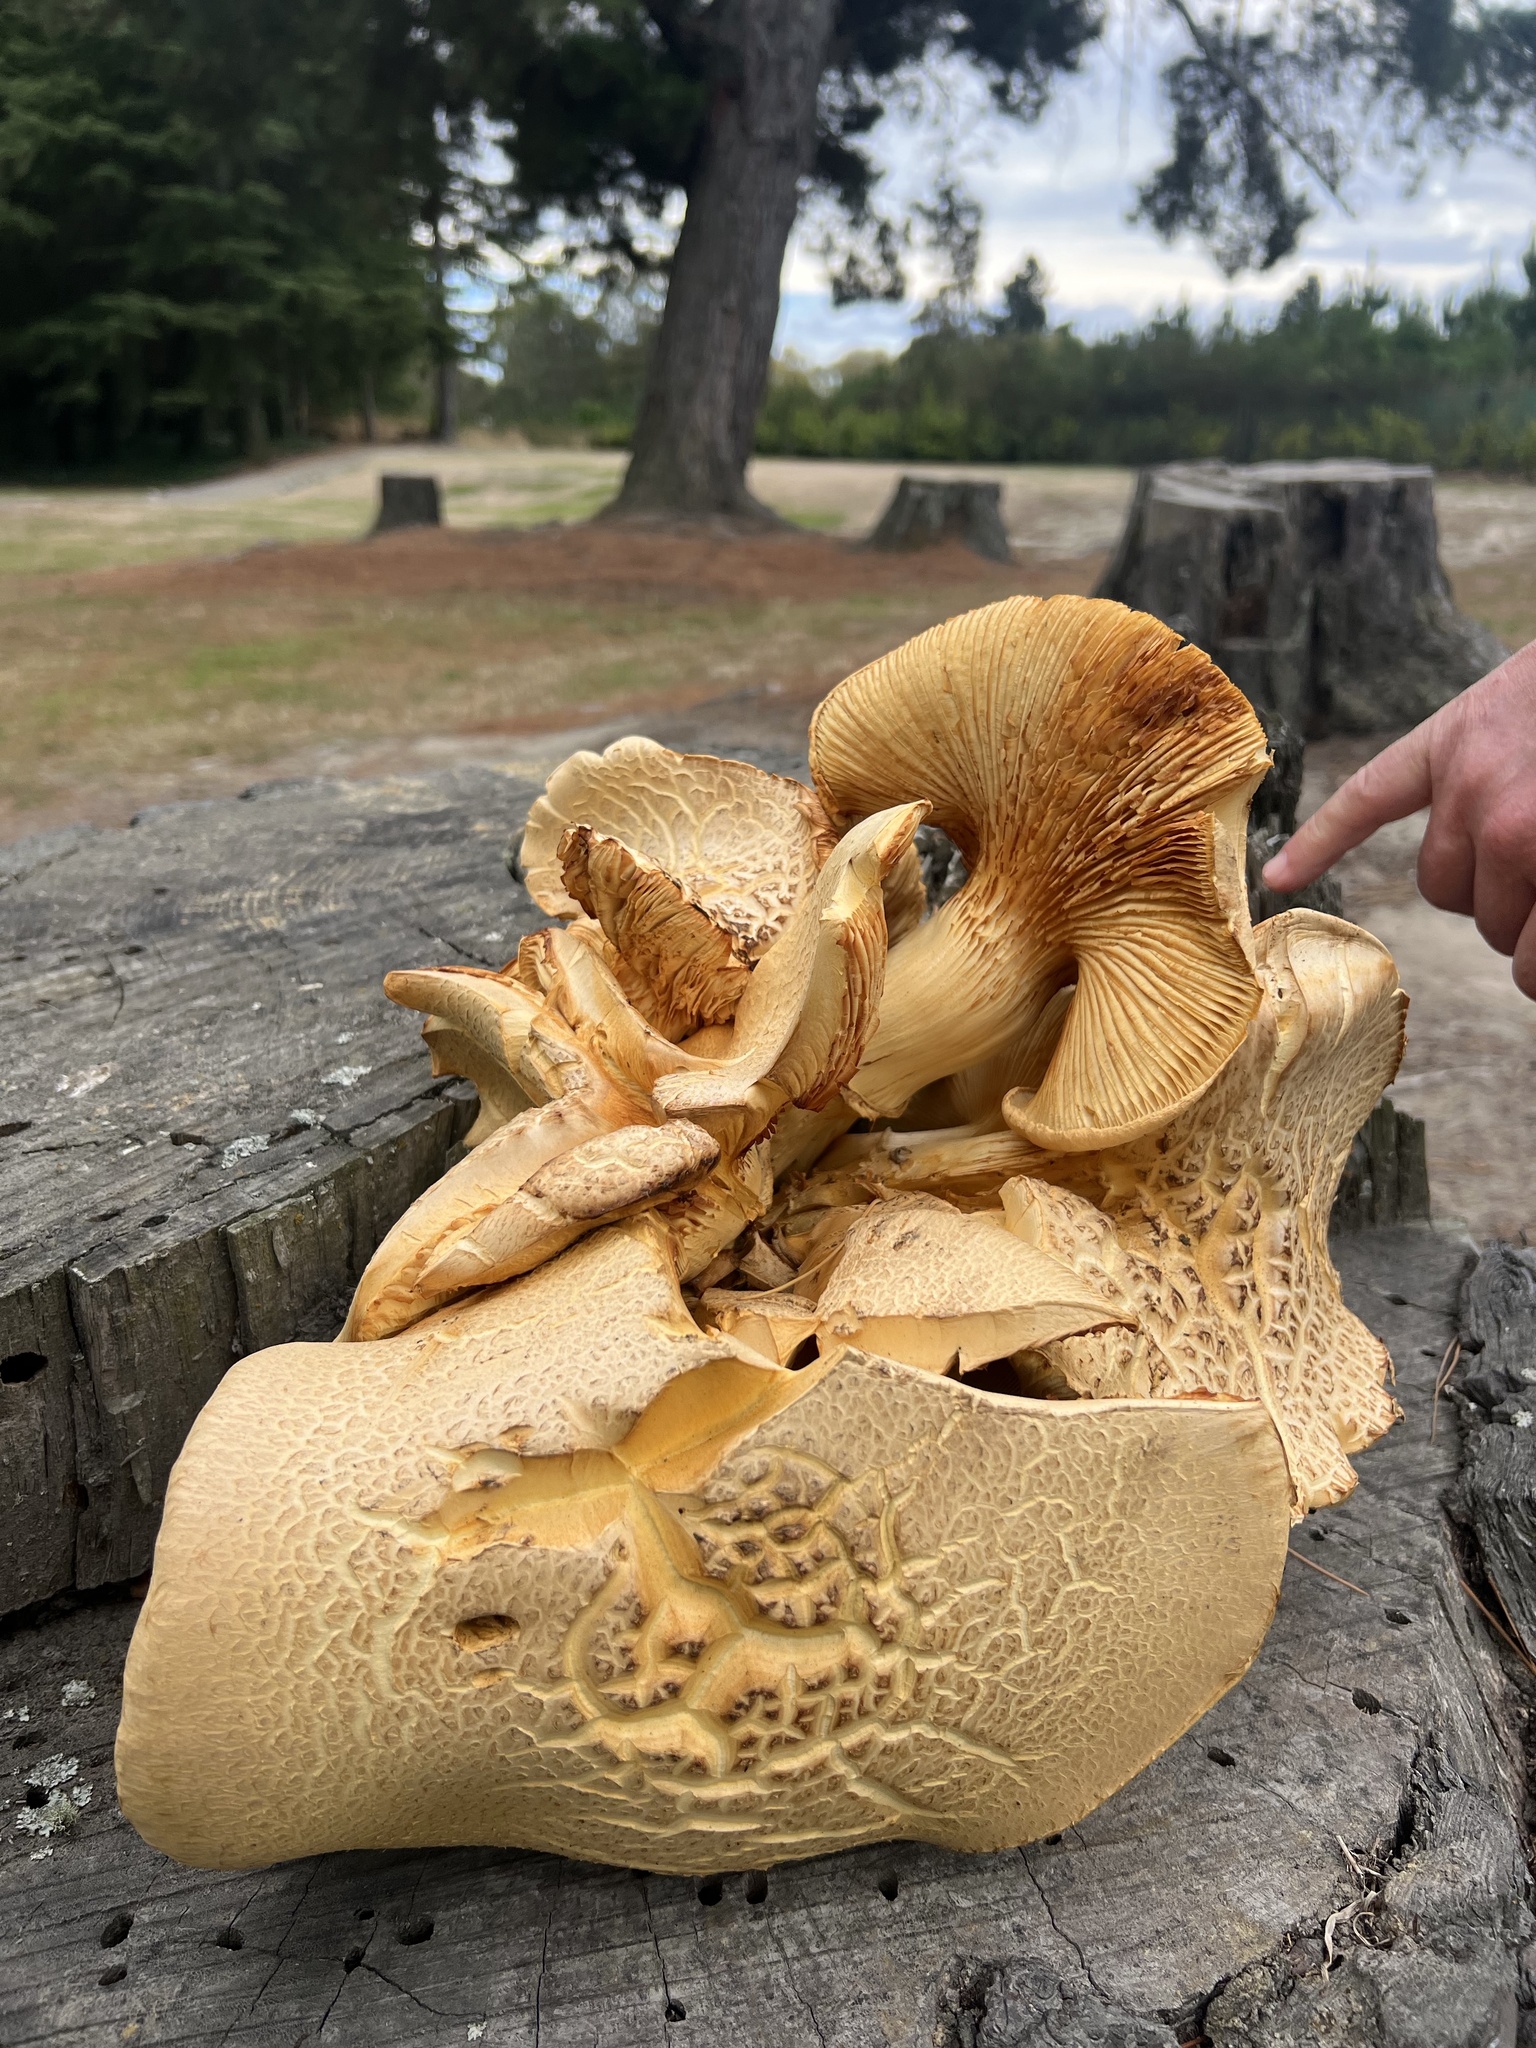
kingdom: Fungi
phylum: Basidiomycota
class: Agaricomycetes
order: Agaricales
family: Hymenogastraceae
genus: Gymnopilus
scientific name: Gymnopilus junonius
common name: Spectacular rustgill
